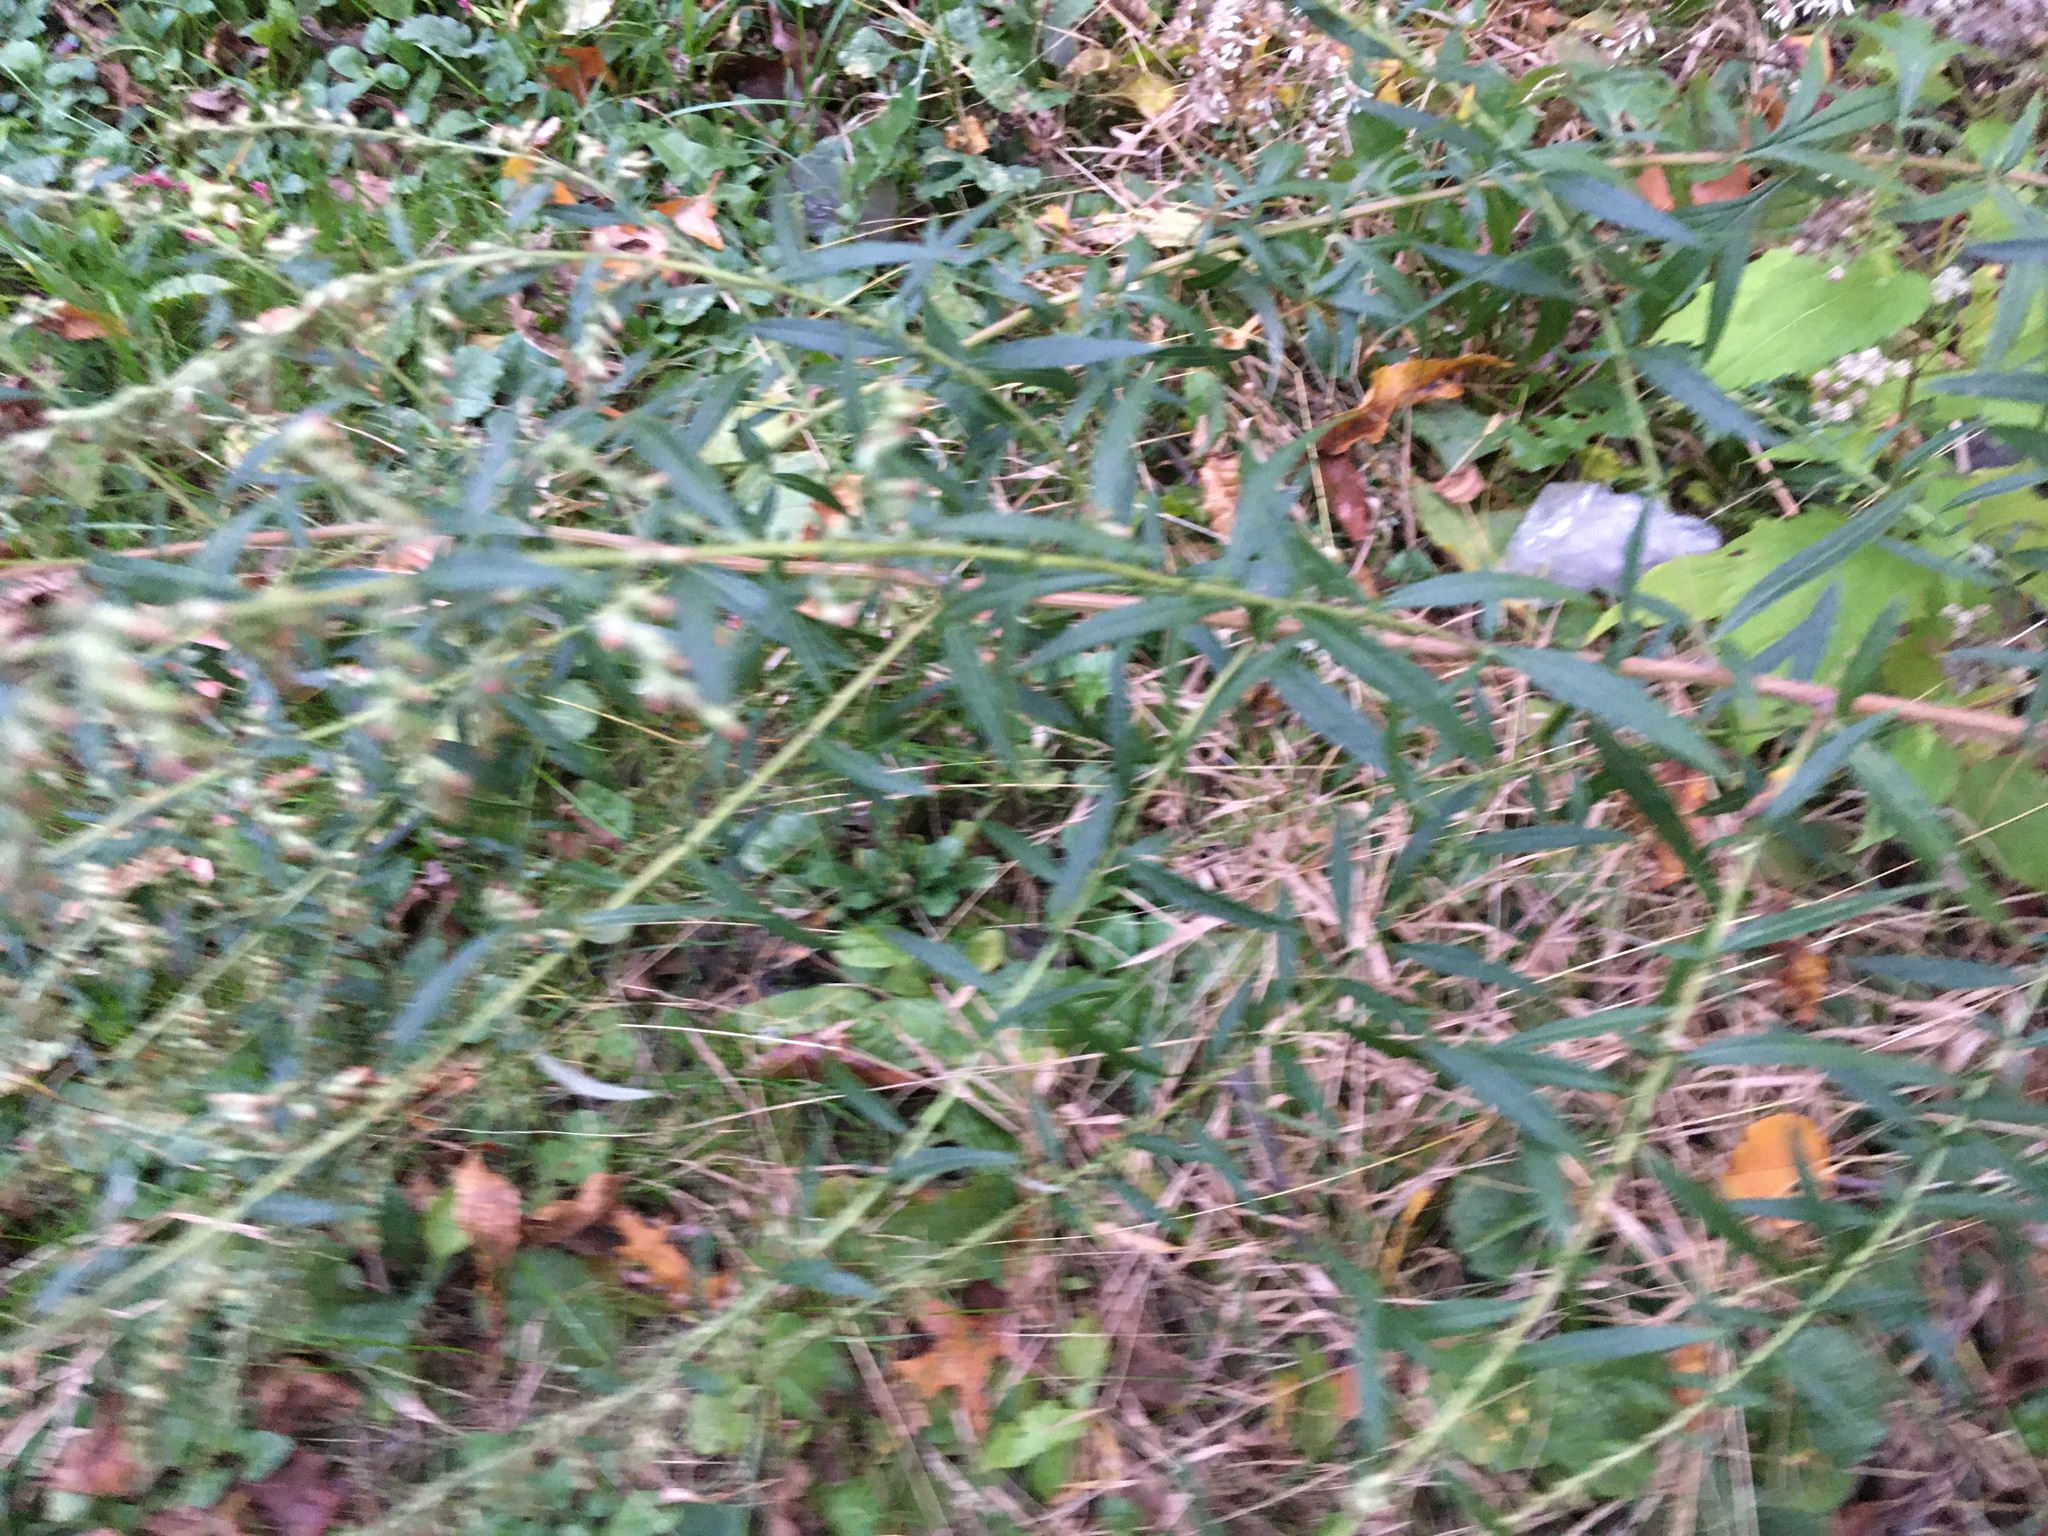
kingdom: Plantae
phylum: Tracheophyta
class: Magnoliopsida
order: Asterales
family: Asteraceae
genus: Artemisia
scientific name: Artemisia vulgaris
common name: Mugwort
